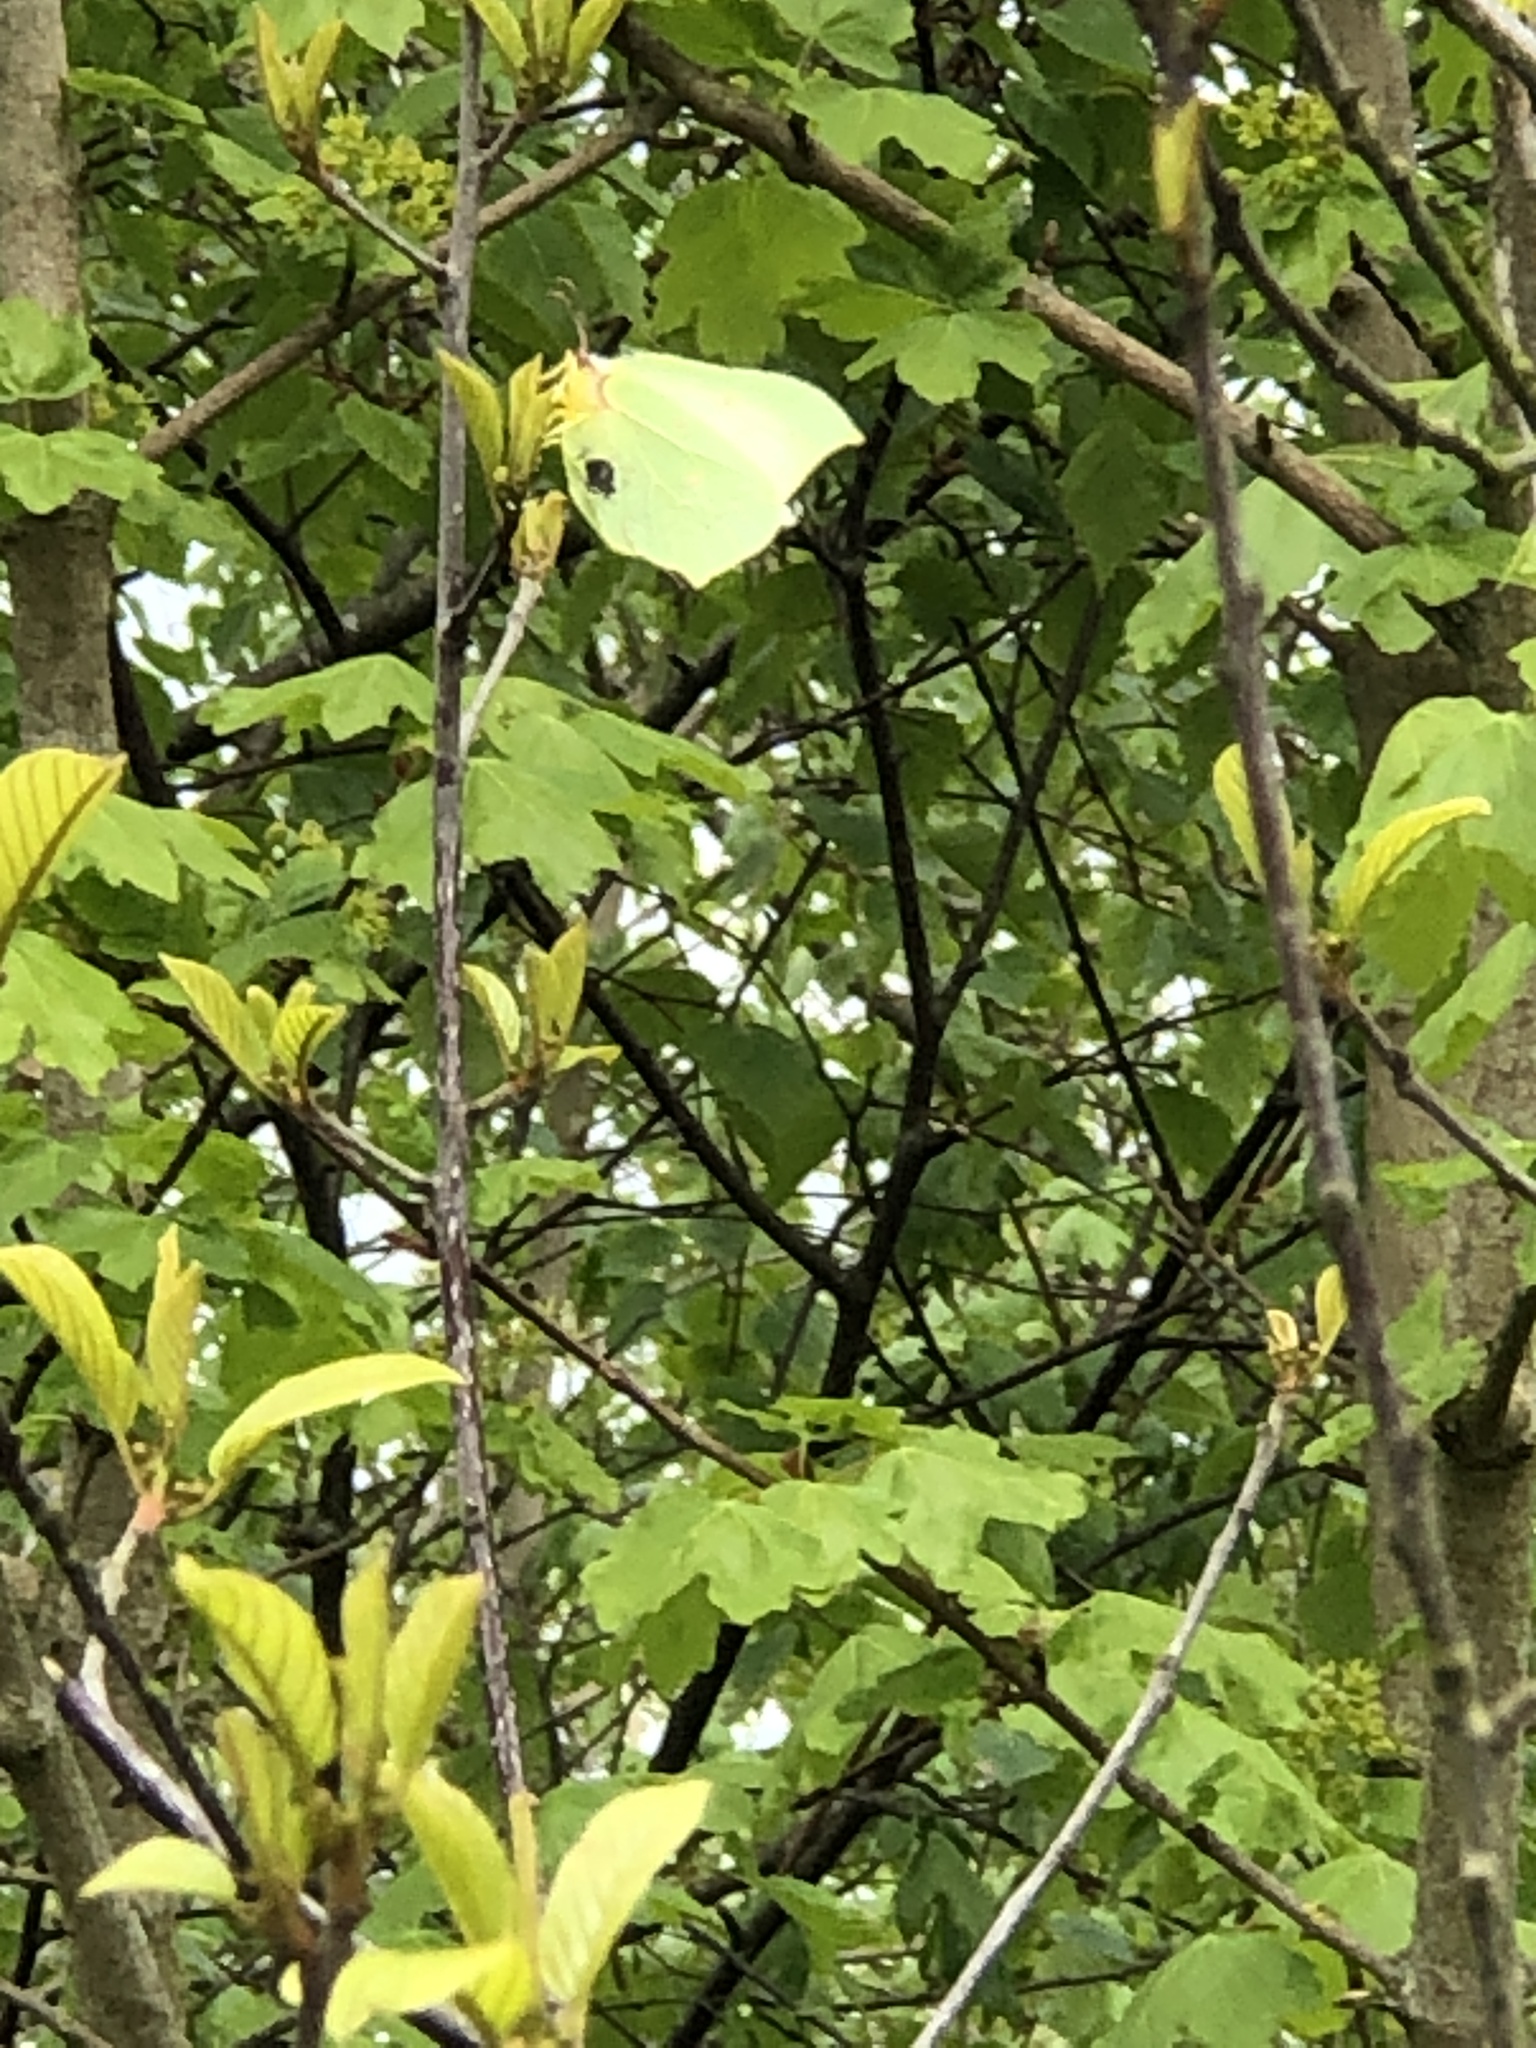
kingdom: Animalia
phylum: Arthropoda
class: Insecta
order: Lepidoptera
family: Pieridae
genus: Gonepteryx
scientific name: Gonepteryx rhamni
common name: Brimstone
